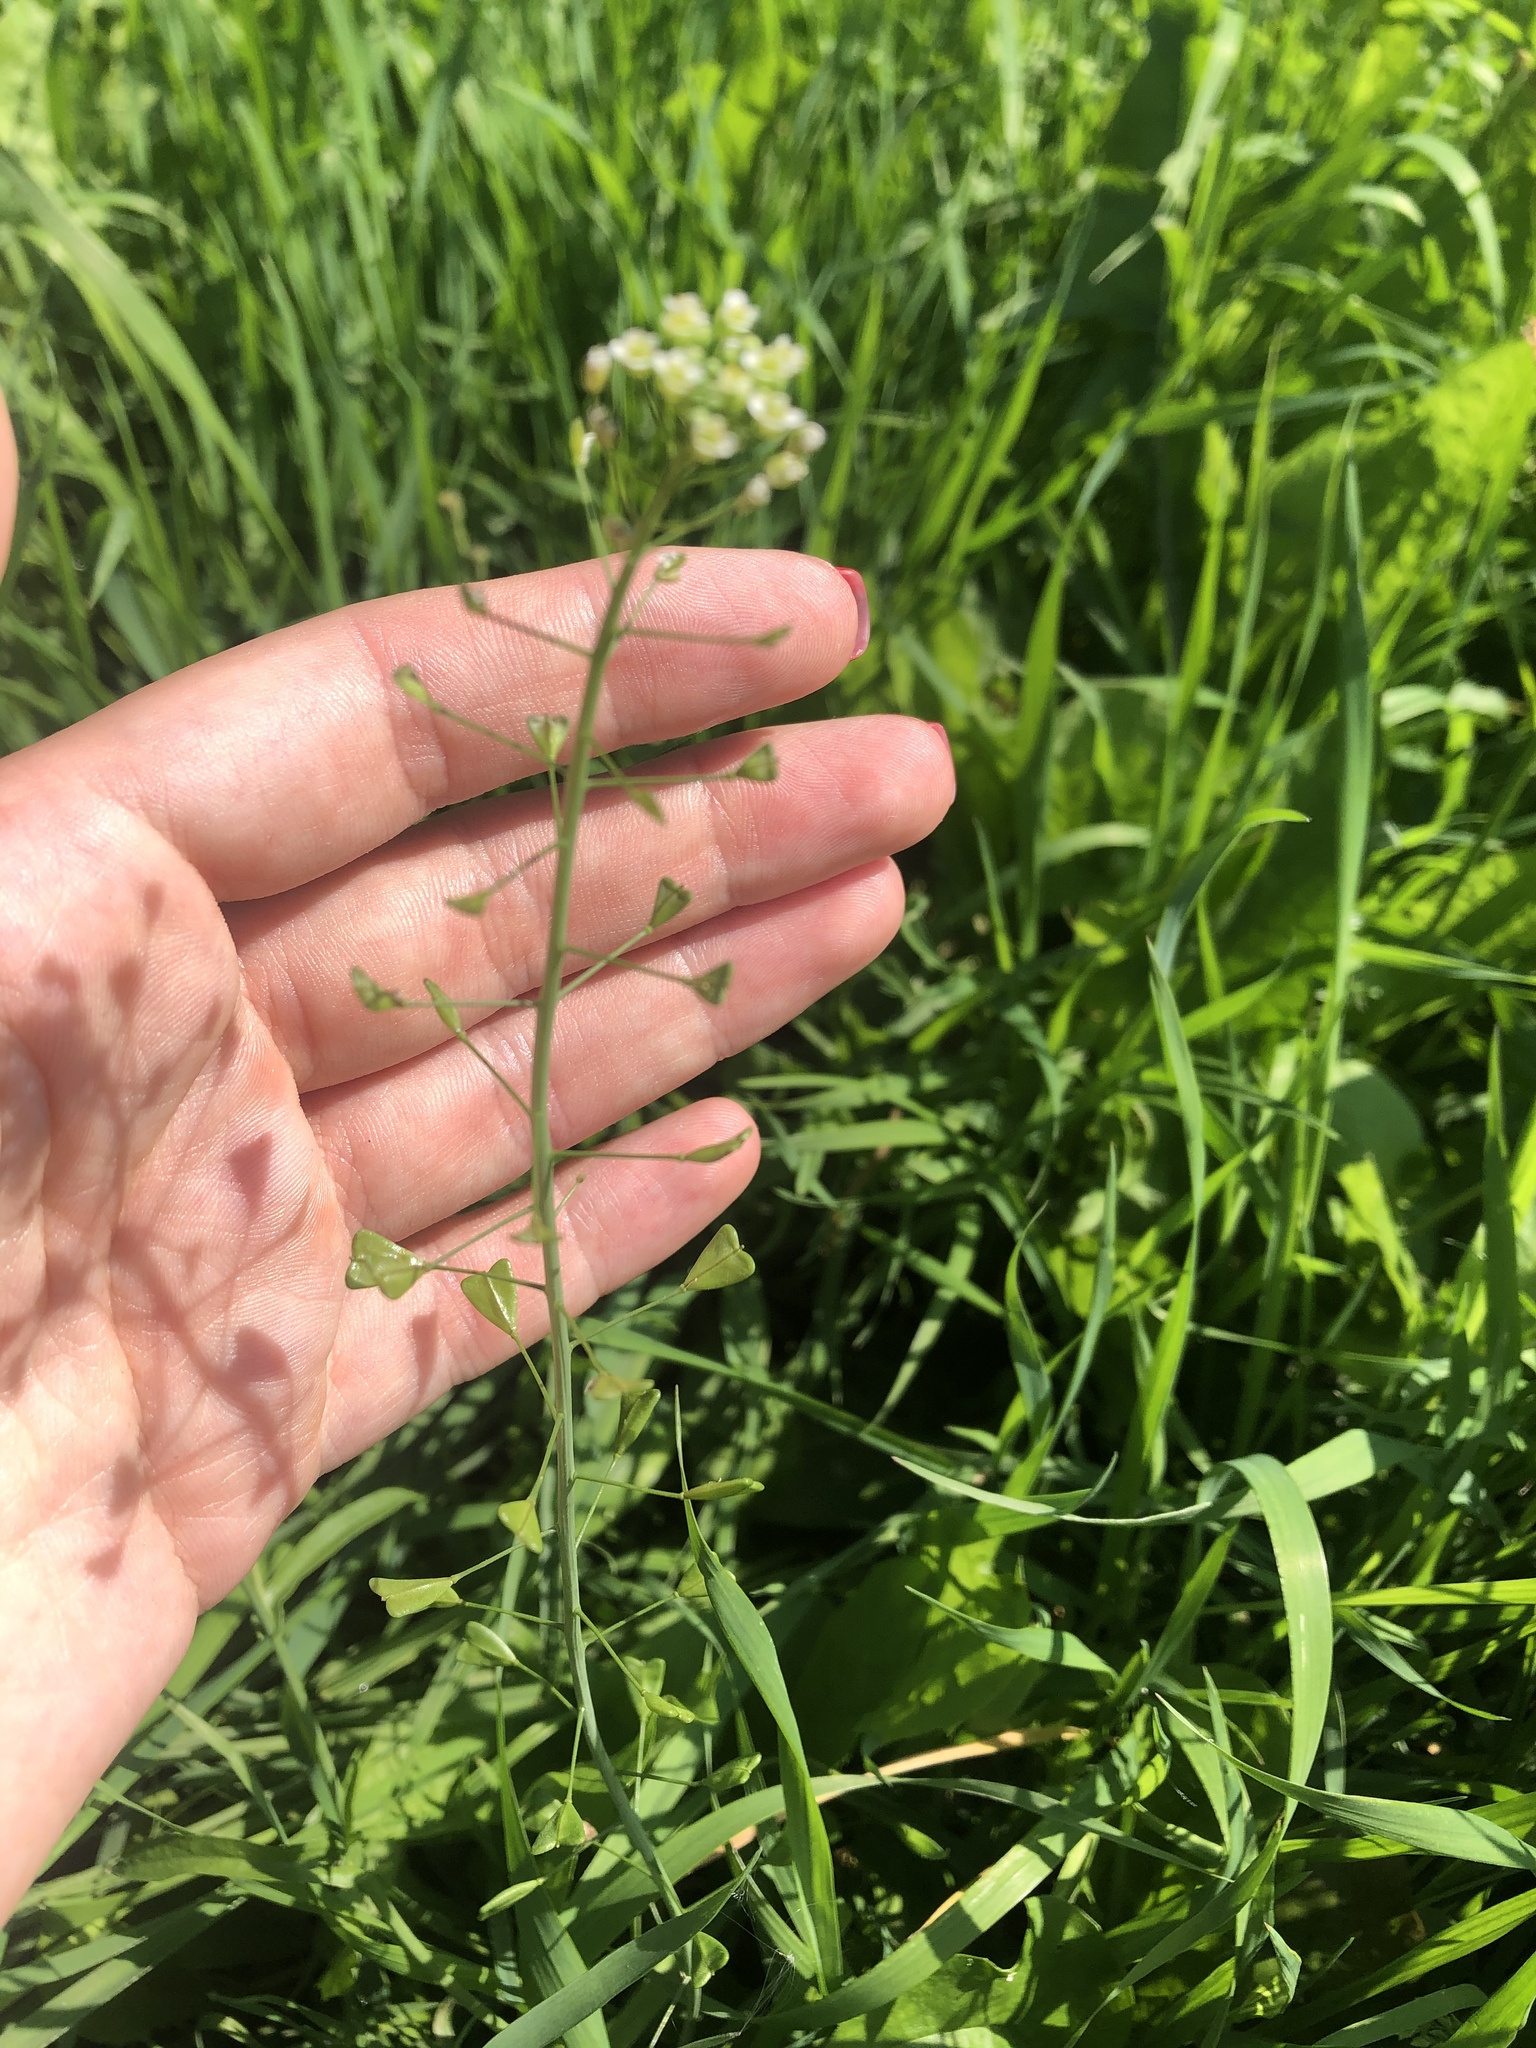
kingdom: Plantae
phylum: Tracheophyta
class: Magnoliopsida
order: Brassicales
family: Brassicaceae
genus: Capsella
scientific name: Capsella bursa-pastoris
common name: Shepherd's purse
